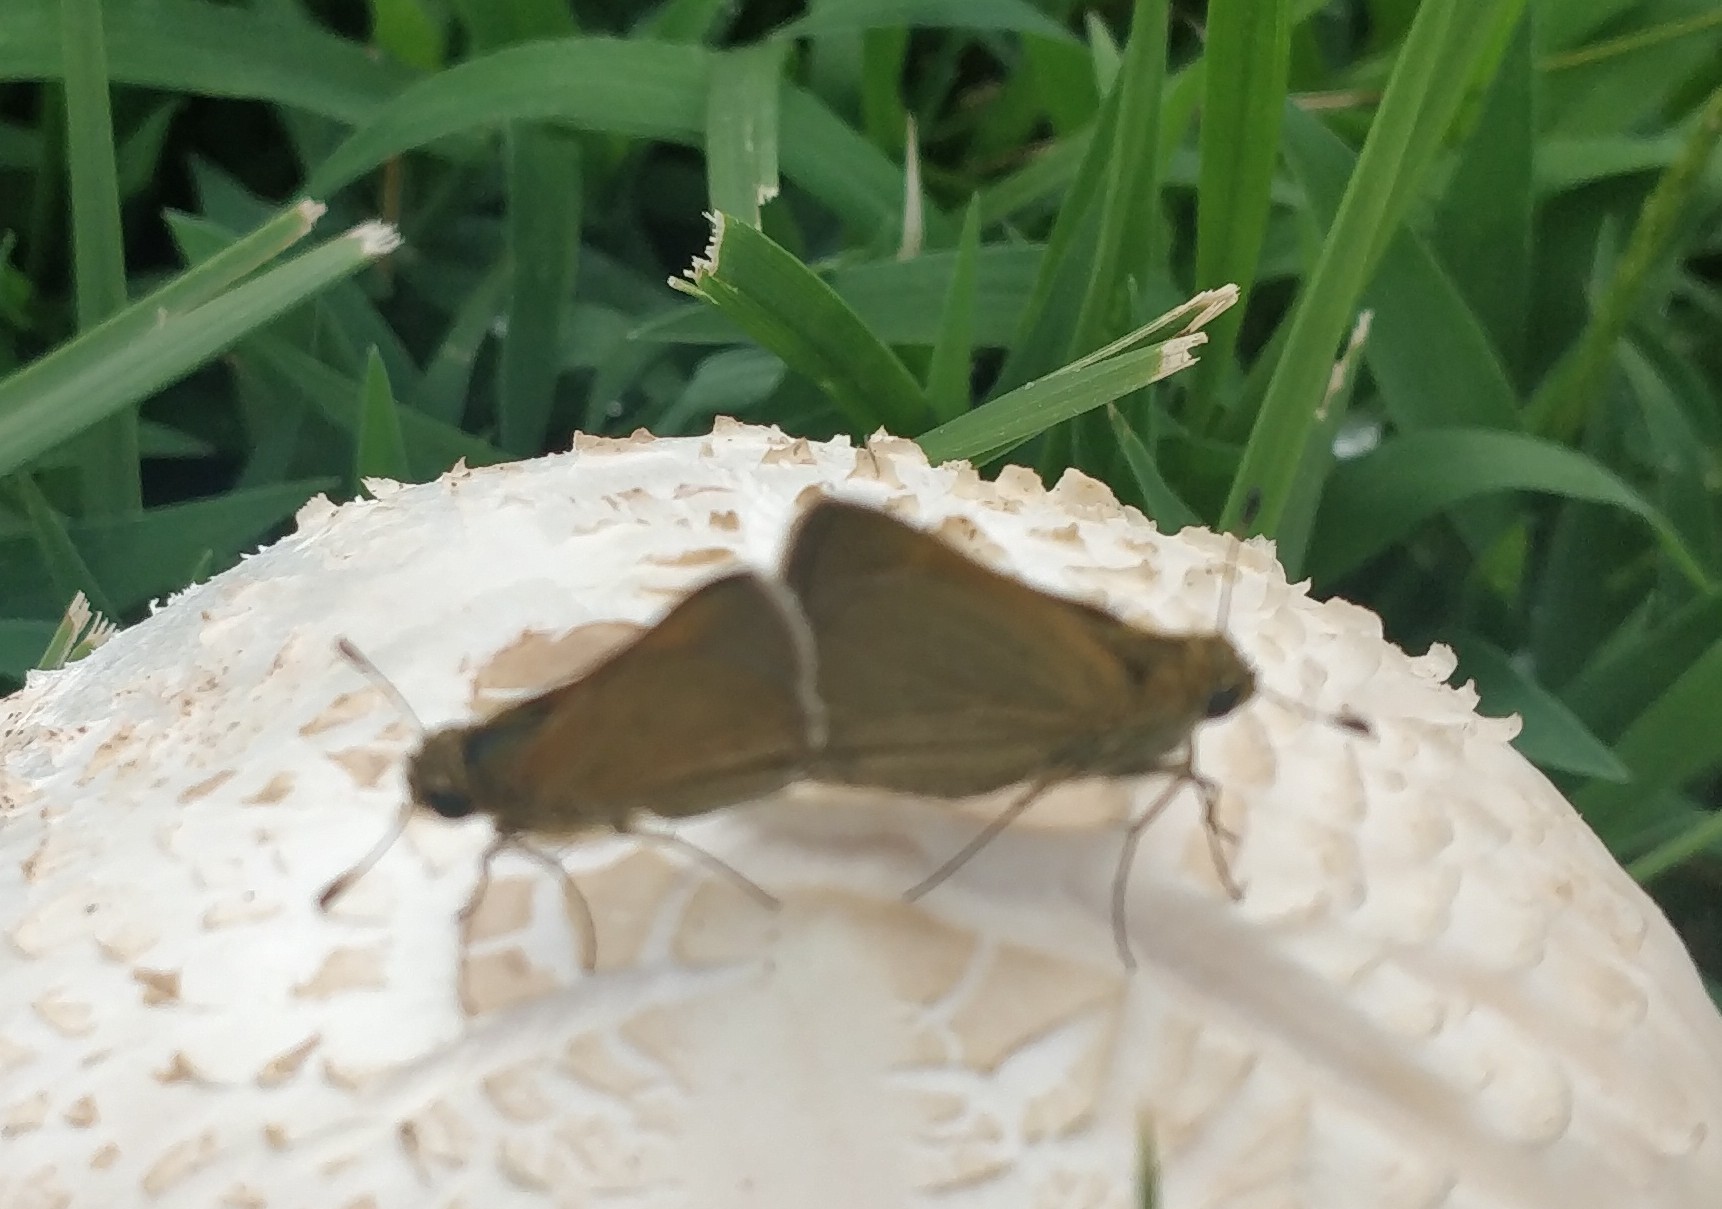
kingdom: Animalia
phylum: Arthropoda
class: Insecta
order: Lepidoptera
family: Hesperiidae
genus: Polites
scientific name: Polites themistocles
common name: Tawny-edged skipper
